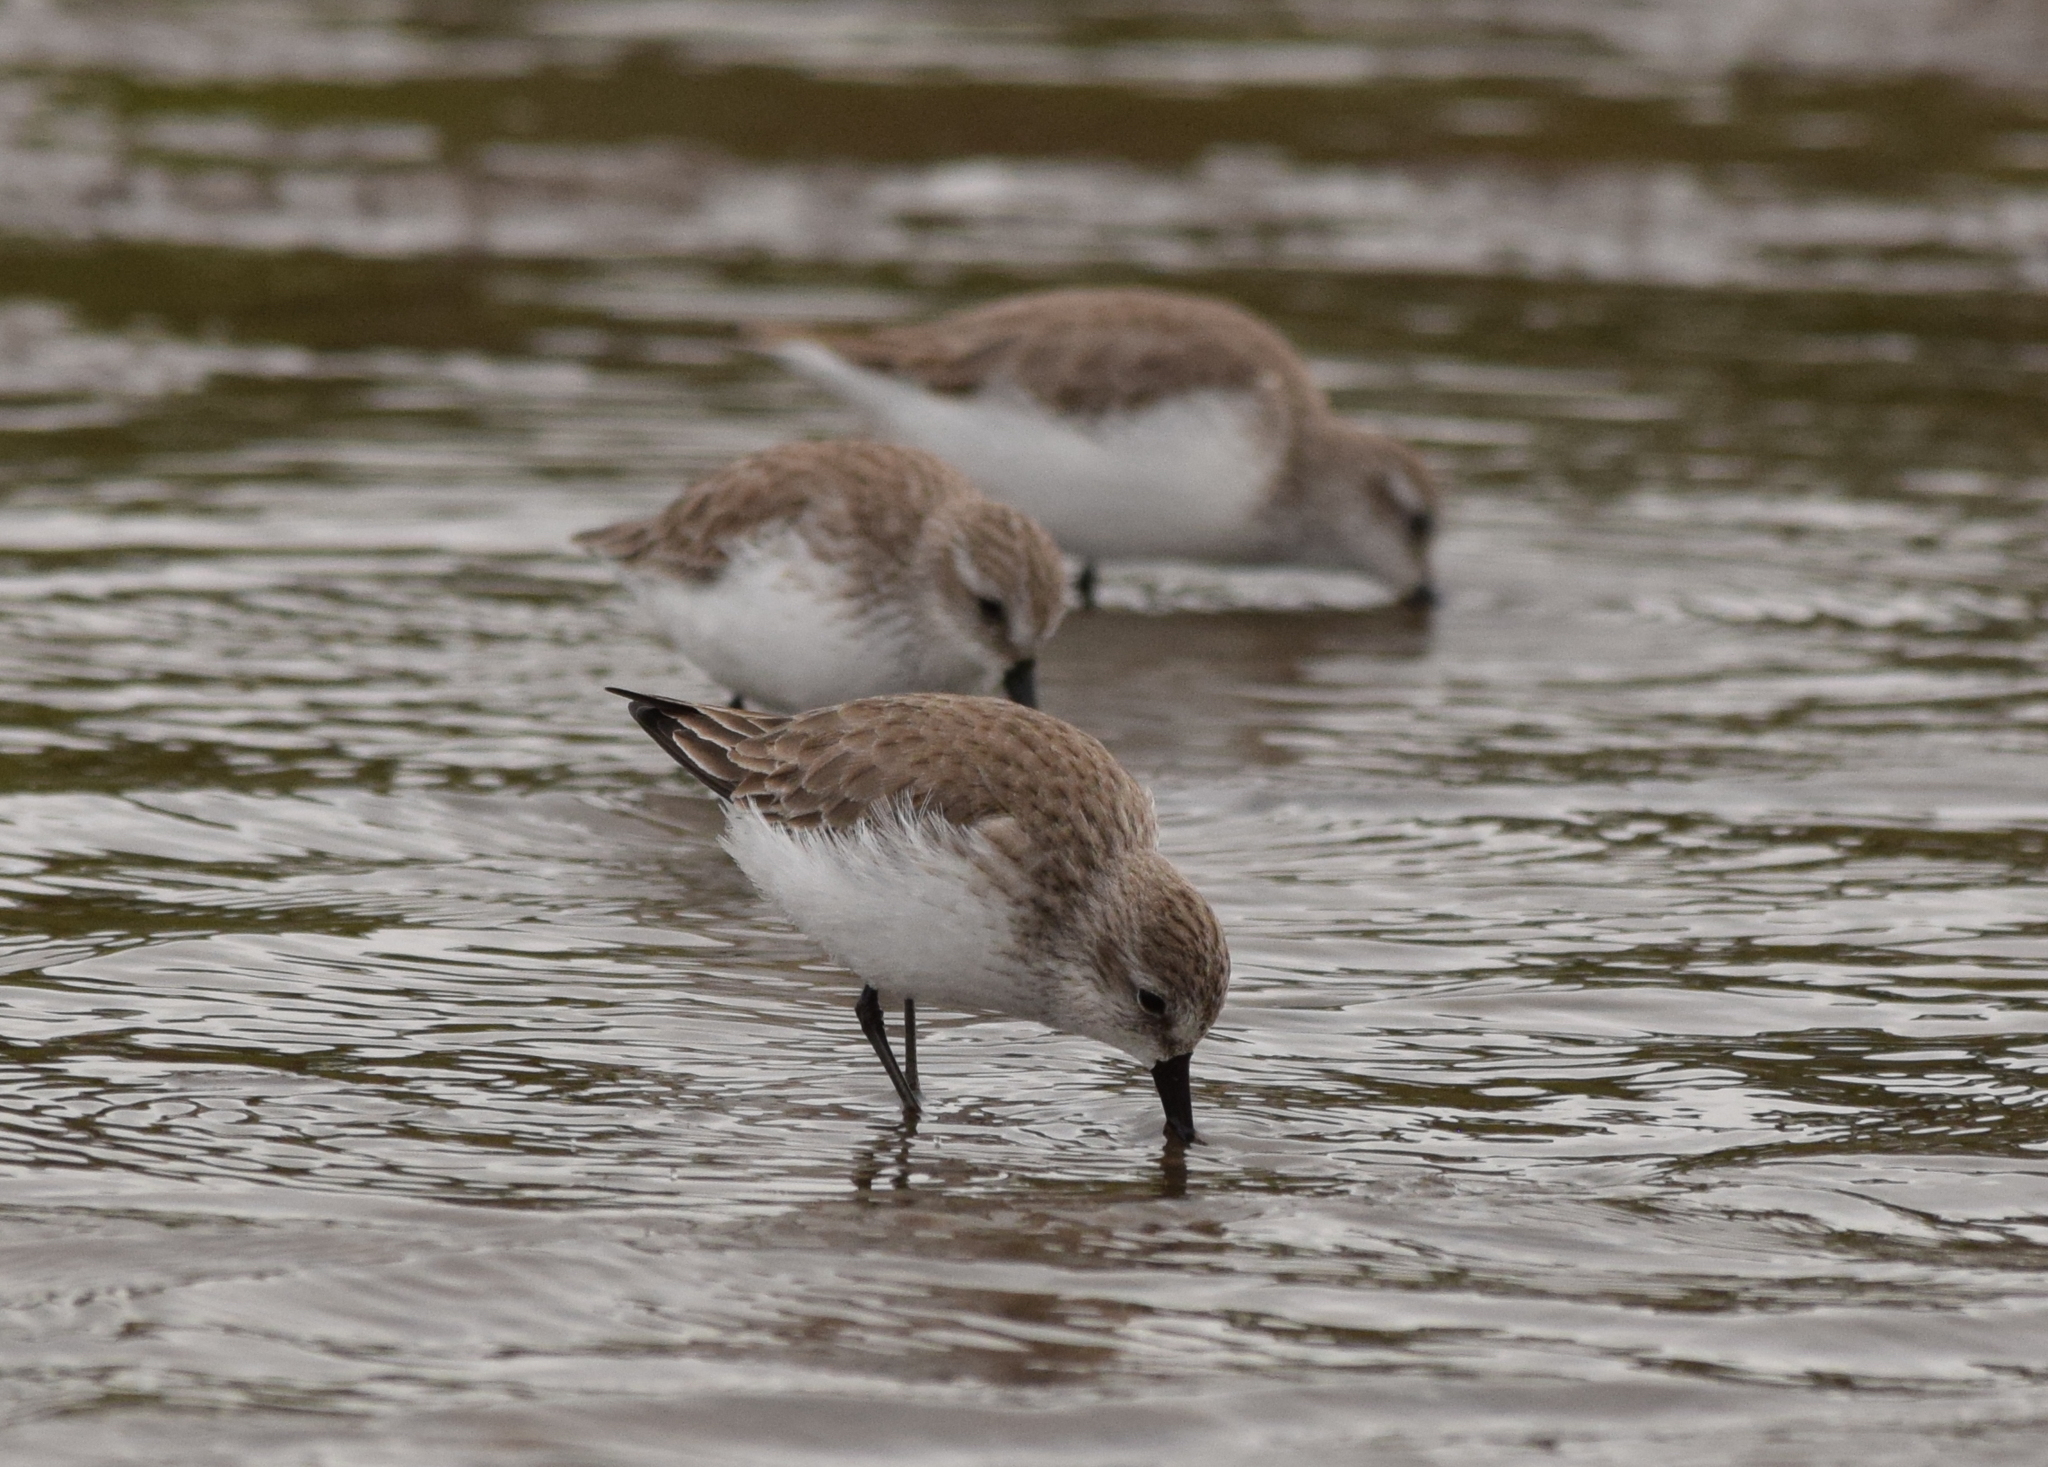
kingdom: Animalia
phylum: Chordata
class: Aves
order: Charadriiformes
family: Scolopacidae
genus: Calidris
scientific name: Calidris mauri
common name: Western sandpiper
